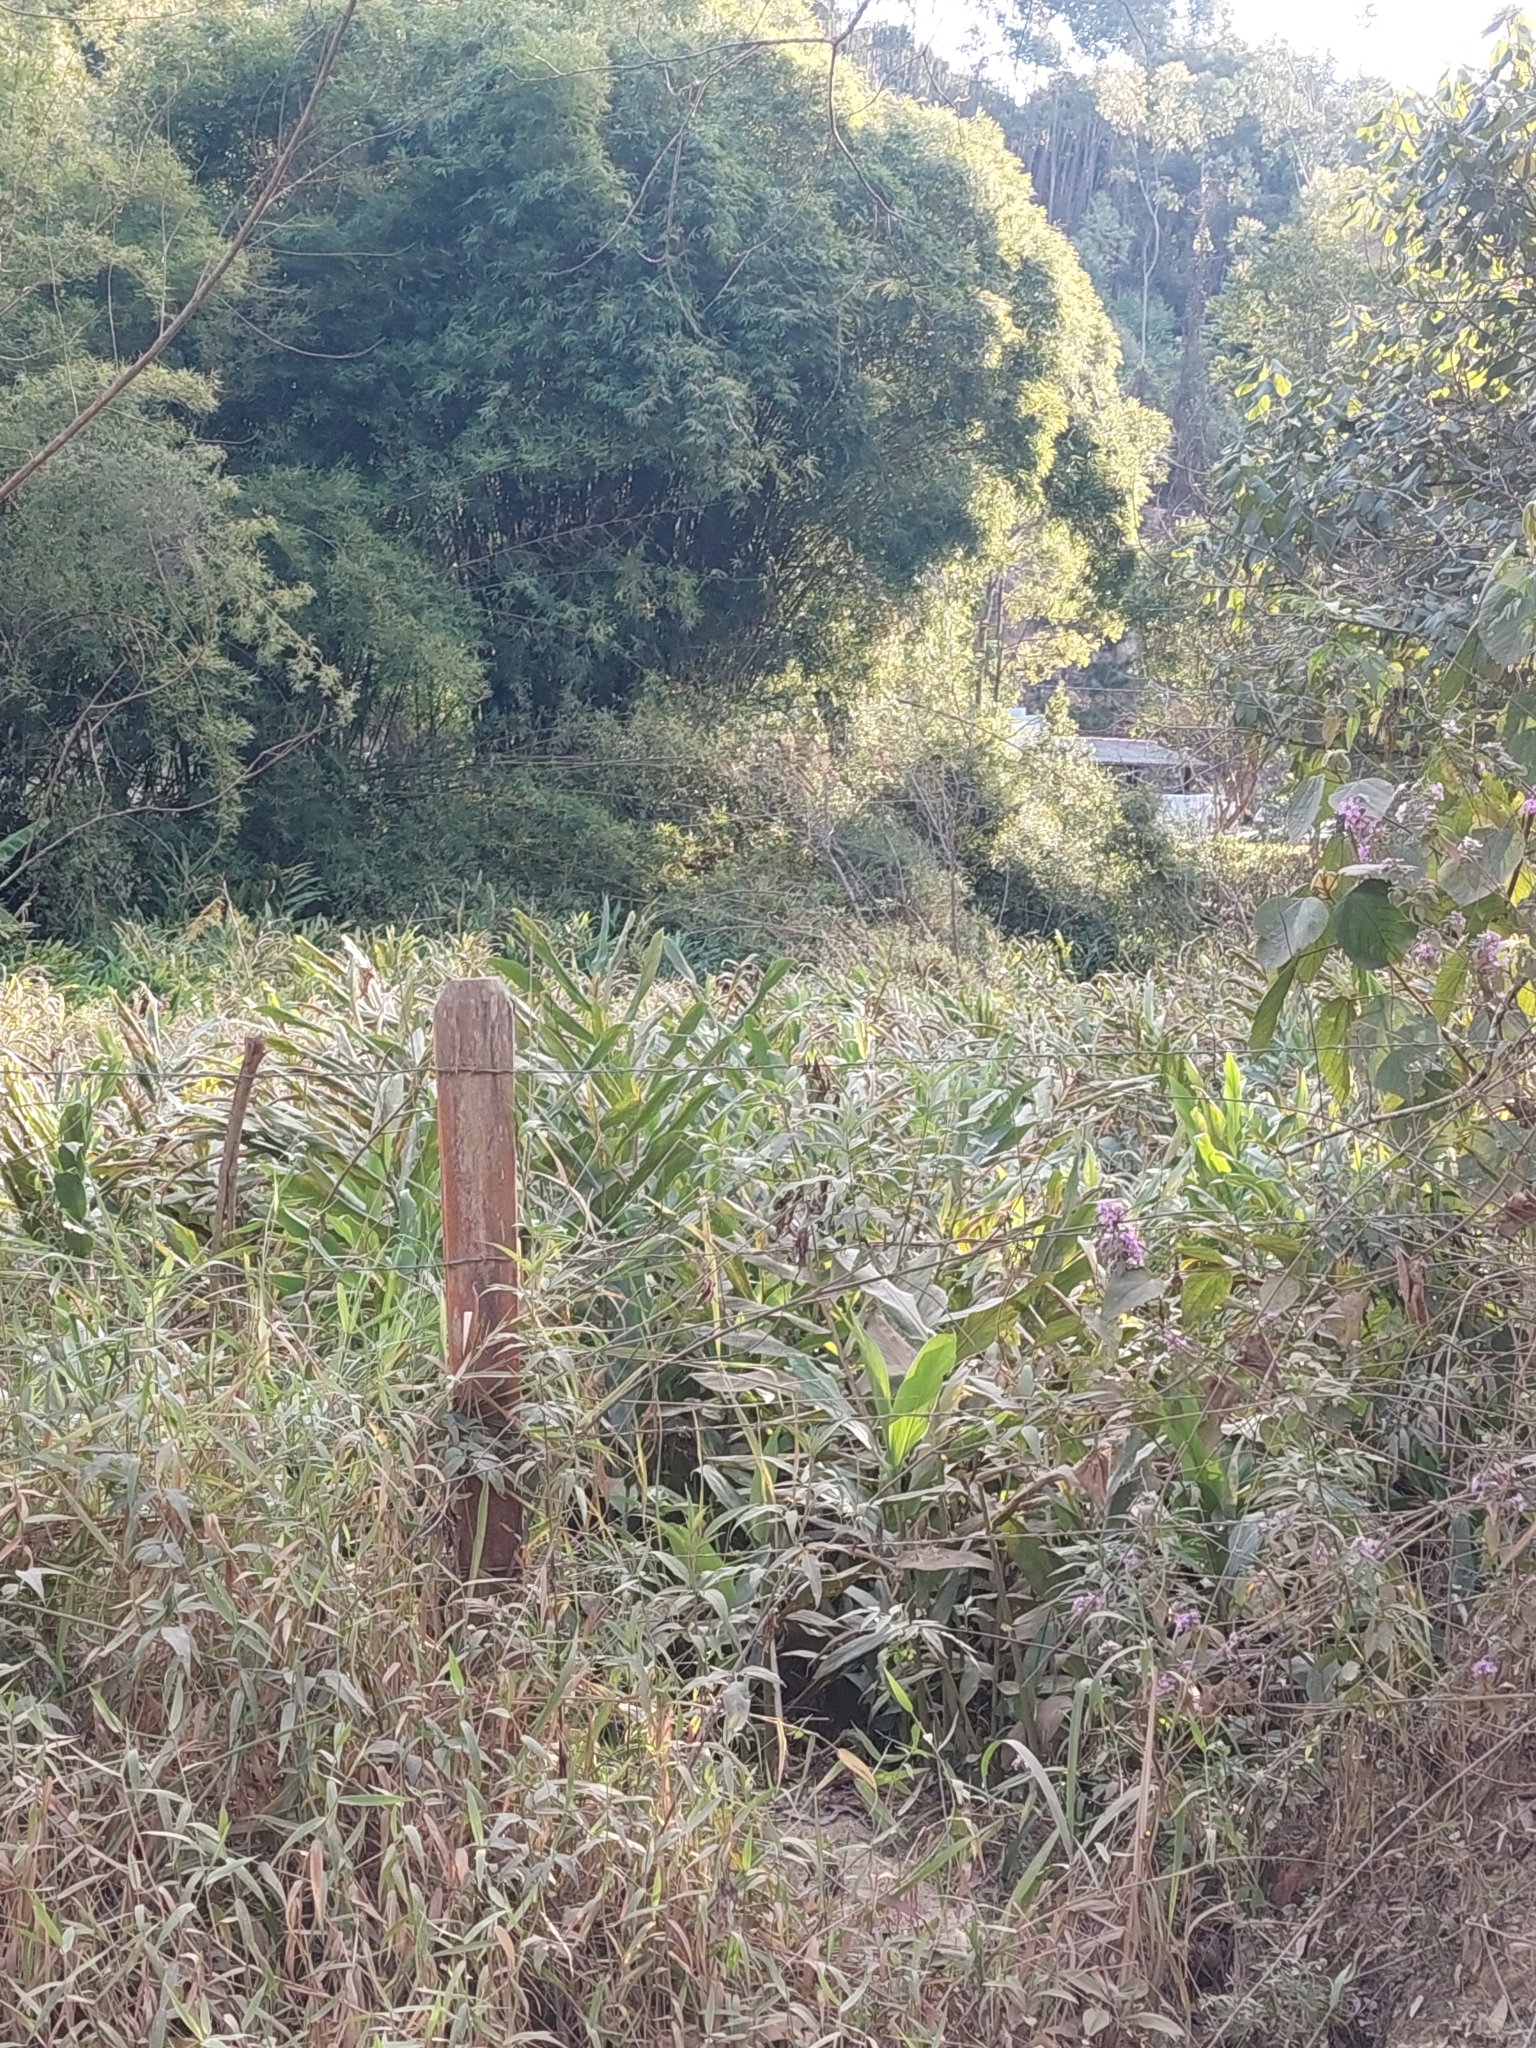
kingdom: Plantae
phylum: Tracheophyta
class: Liliopsida
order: Zingiberales
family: Zingiberaceae
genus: Hedychium
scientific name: Hedychium coronarium
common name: White garland-lily
